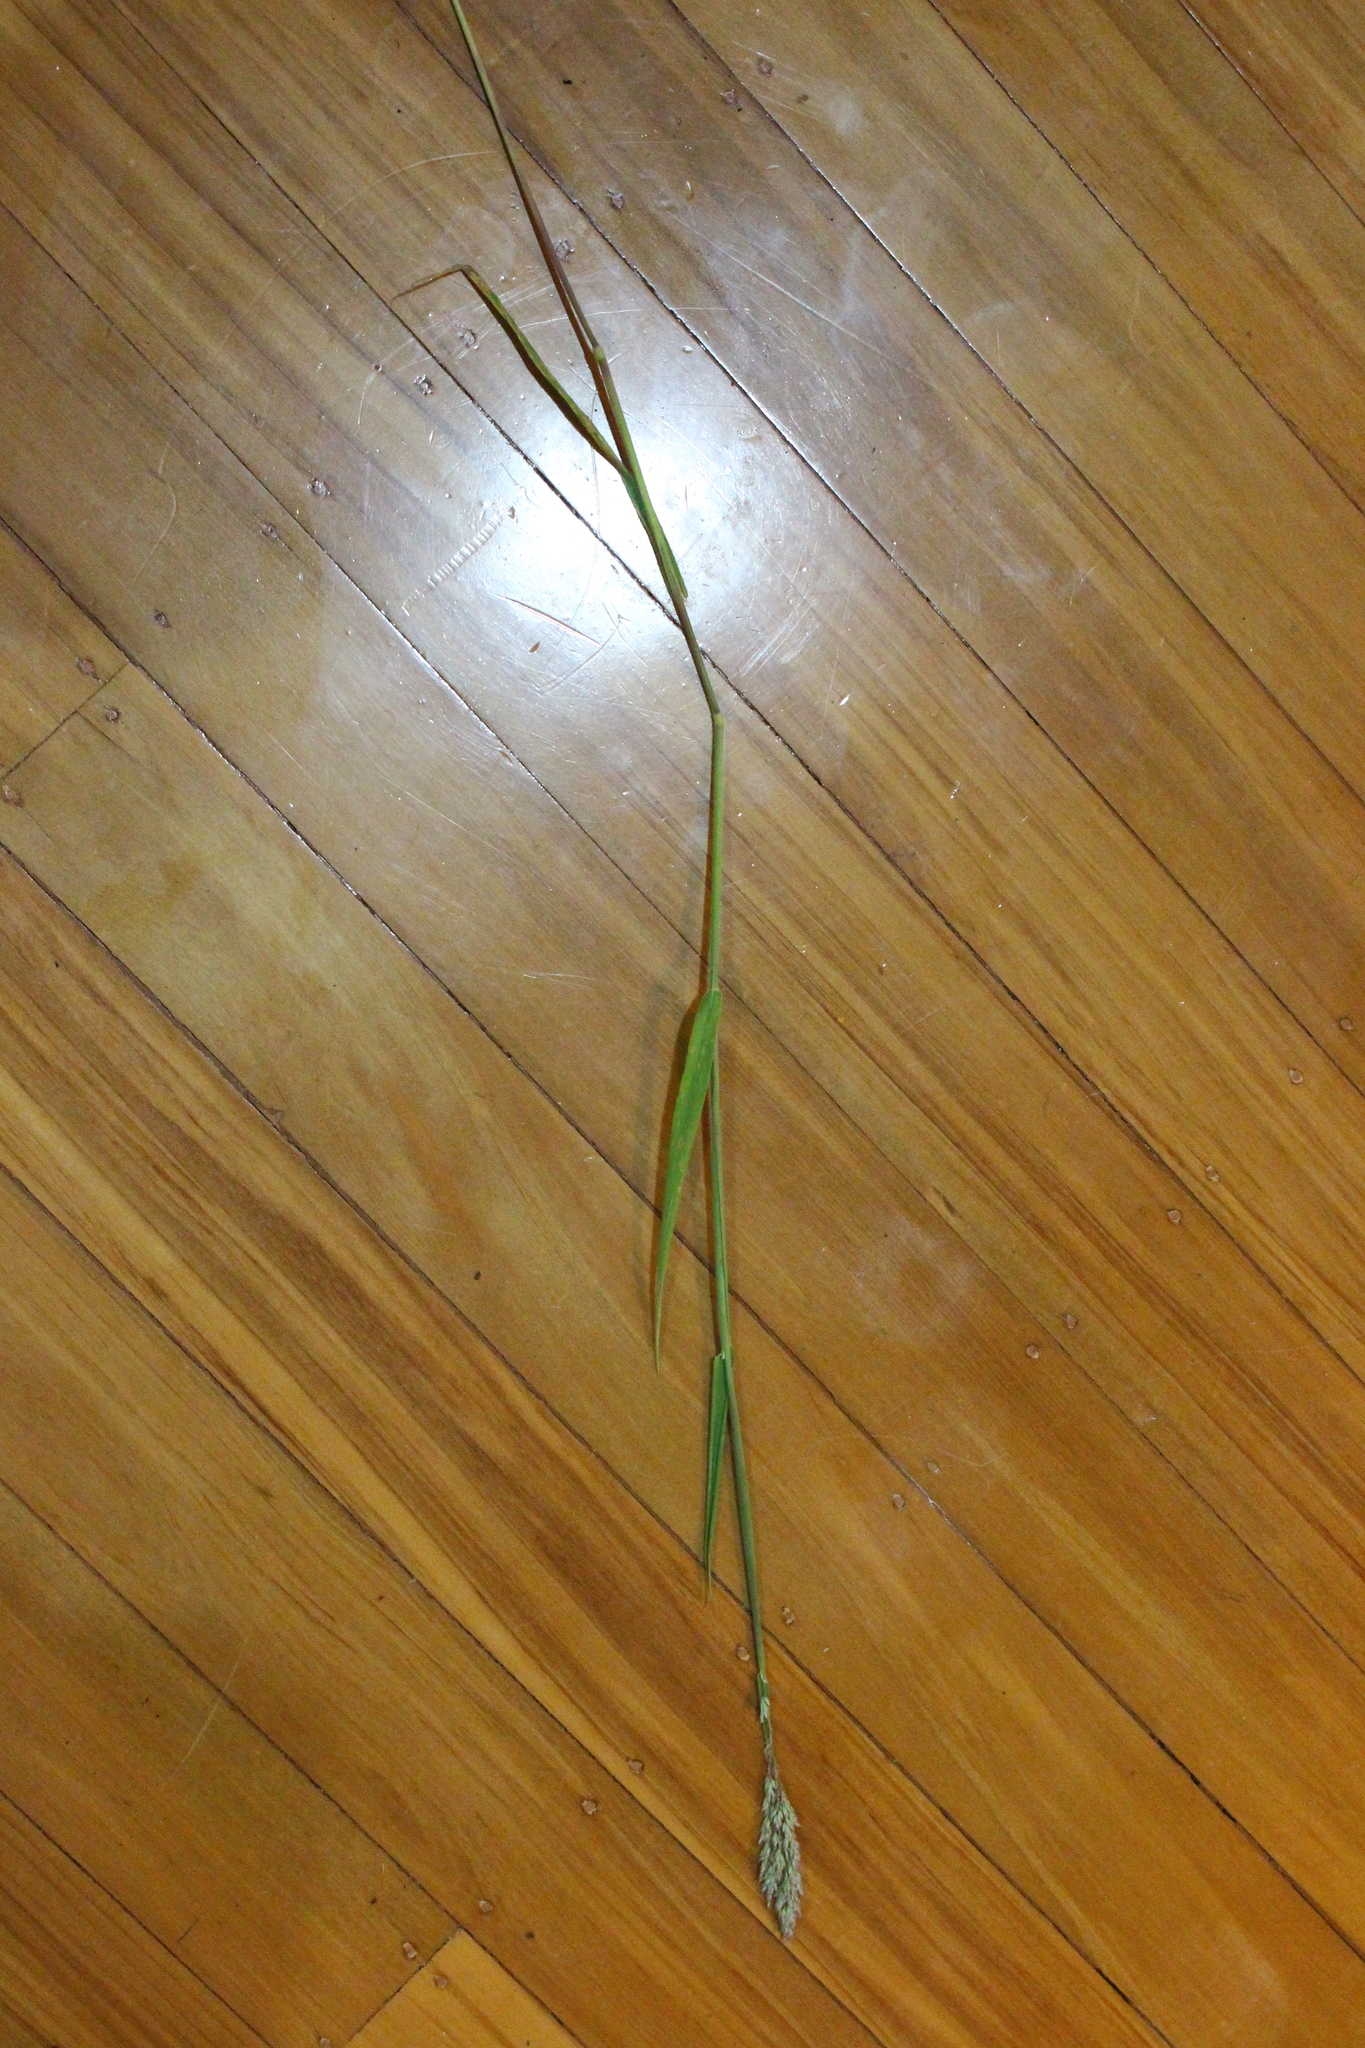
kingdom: Plantae
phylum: Tracheophyta
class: Liliopsida
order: Poales
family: Poaceae
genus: Holcus
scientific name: Holcus lanatus
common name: Yorkshire-fog
